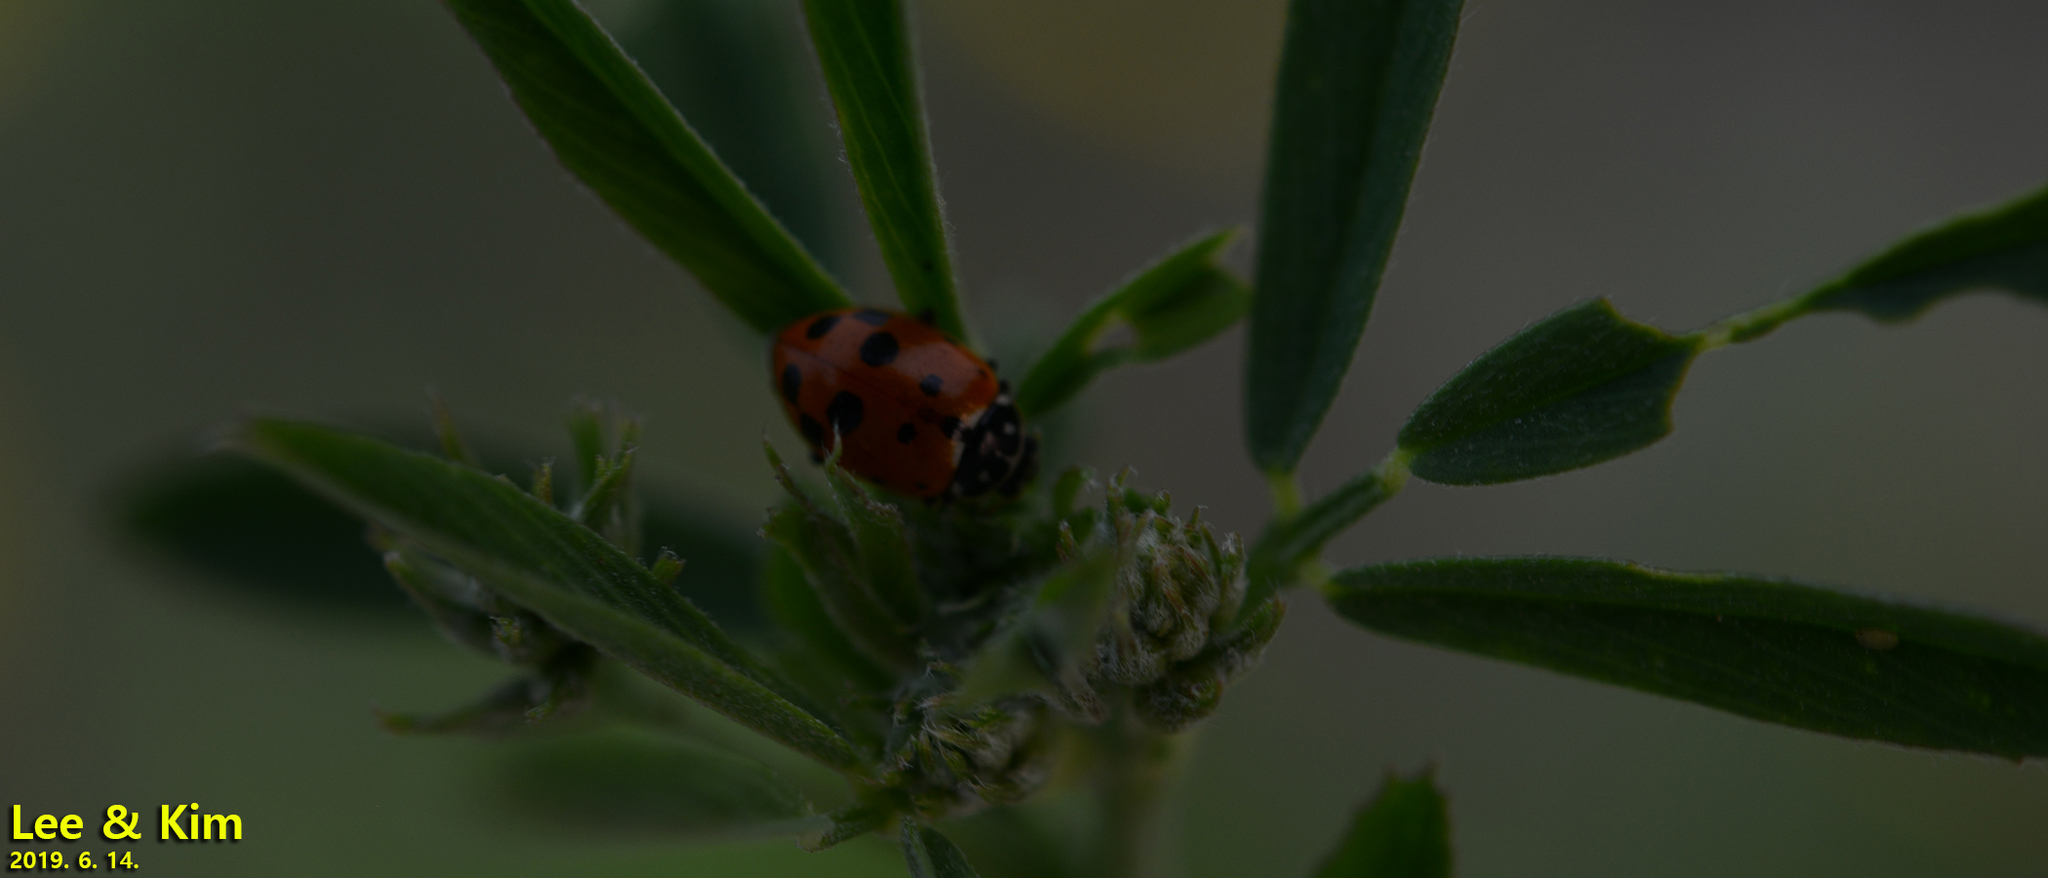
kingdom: Animalia
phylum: Arthropoda
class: Insecta
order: Coleoptera
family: Coccinellidae
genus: Hippodamia
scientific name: Hippodamia variegata
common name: Ladybird beetle
